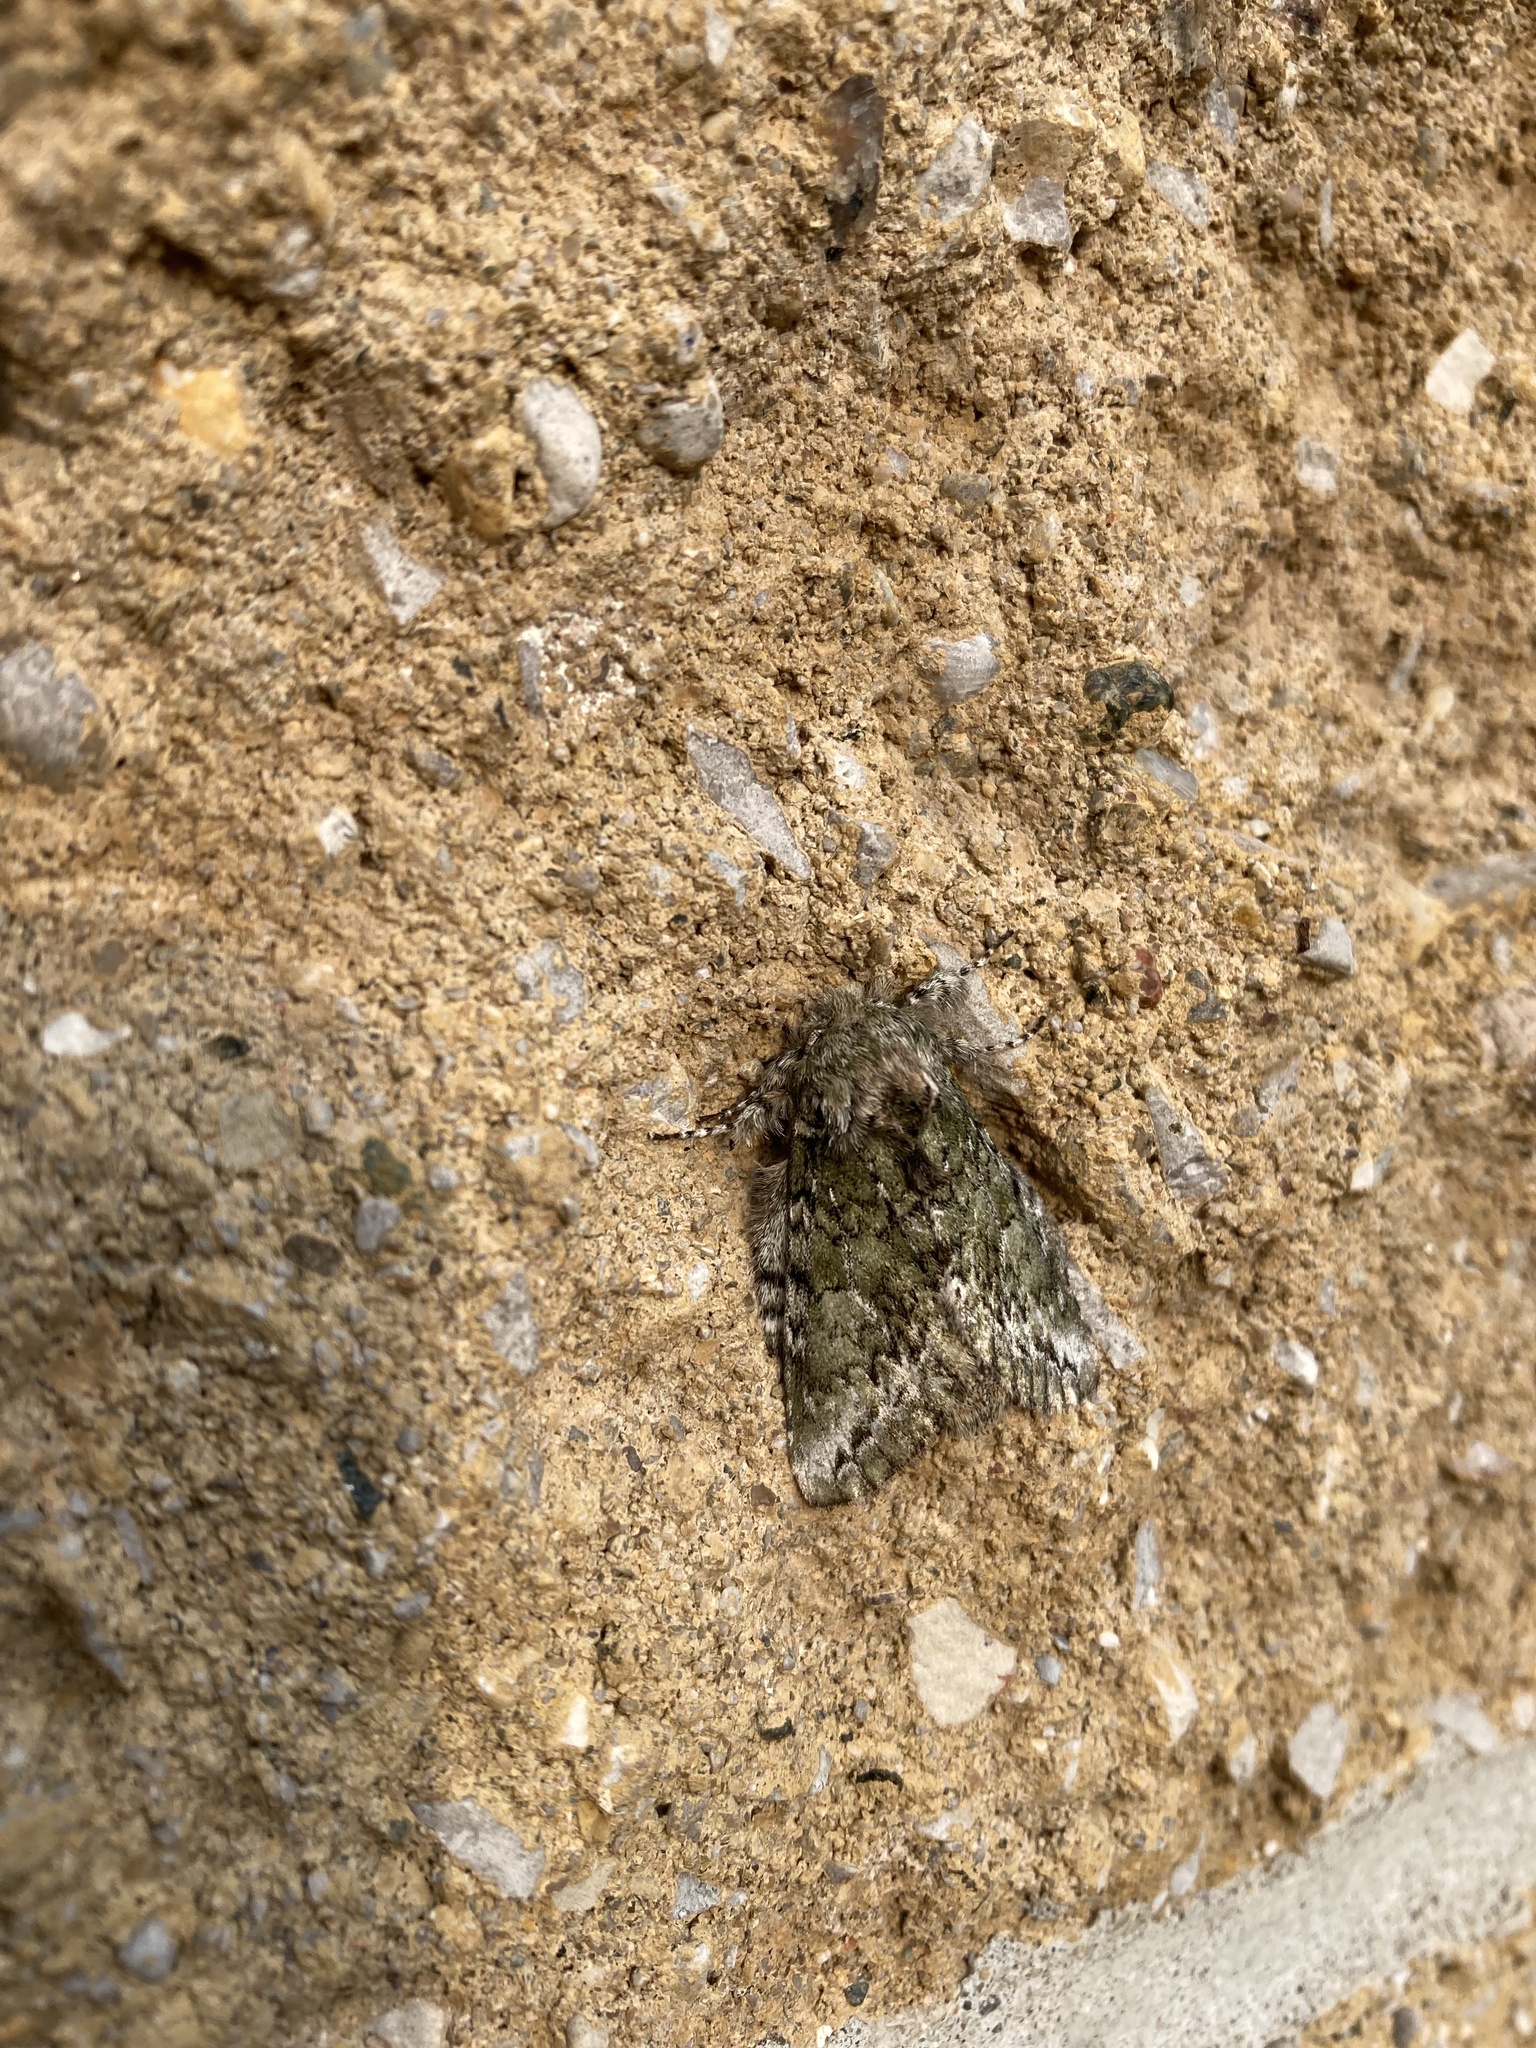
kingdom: Animalia
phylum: Arthropoda
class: Insecta
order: Lepidoptera
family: Notodontidae
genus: Heterocampa
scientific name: Heterocampa
